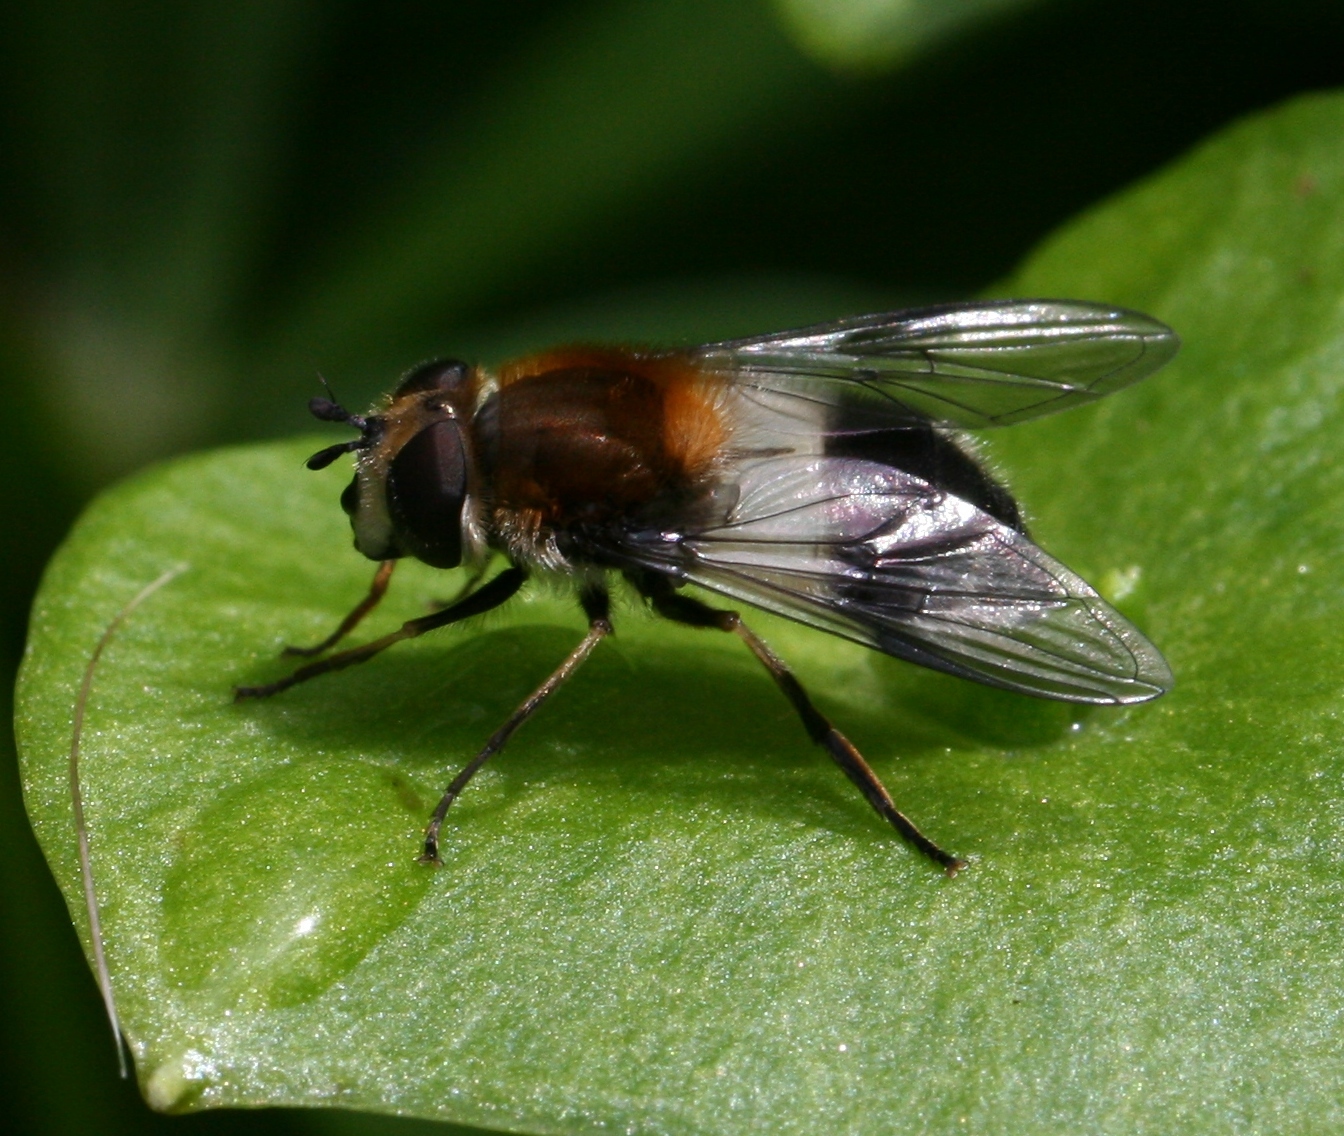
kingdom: Animalia
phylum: Arthropoda
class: Insecta
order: Diptera
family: Syrphidae
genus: Leucozona
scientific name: Leucozona lucorum
